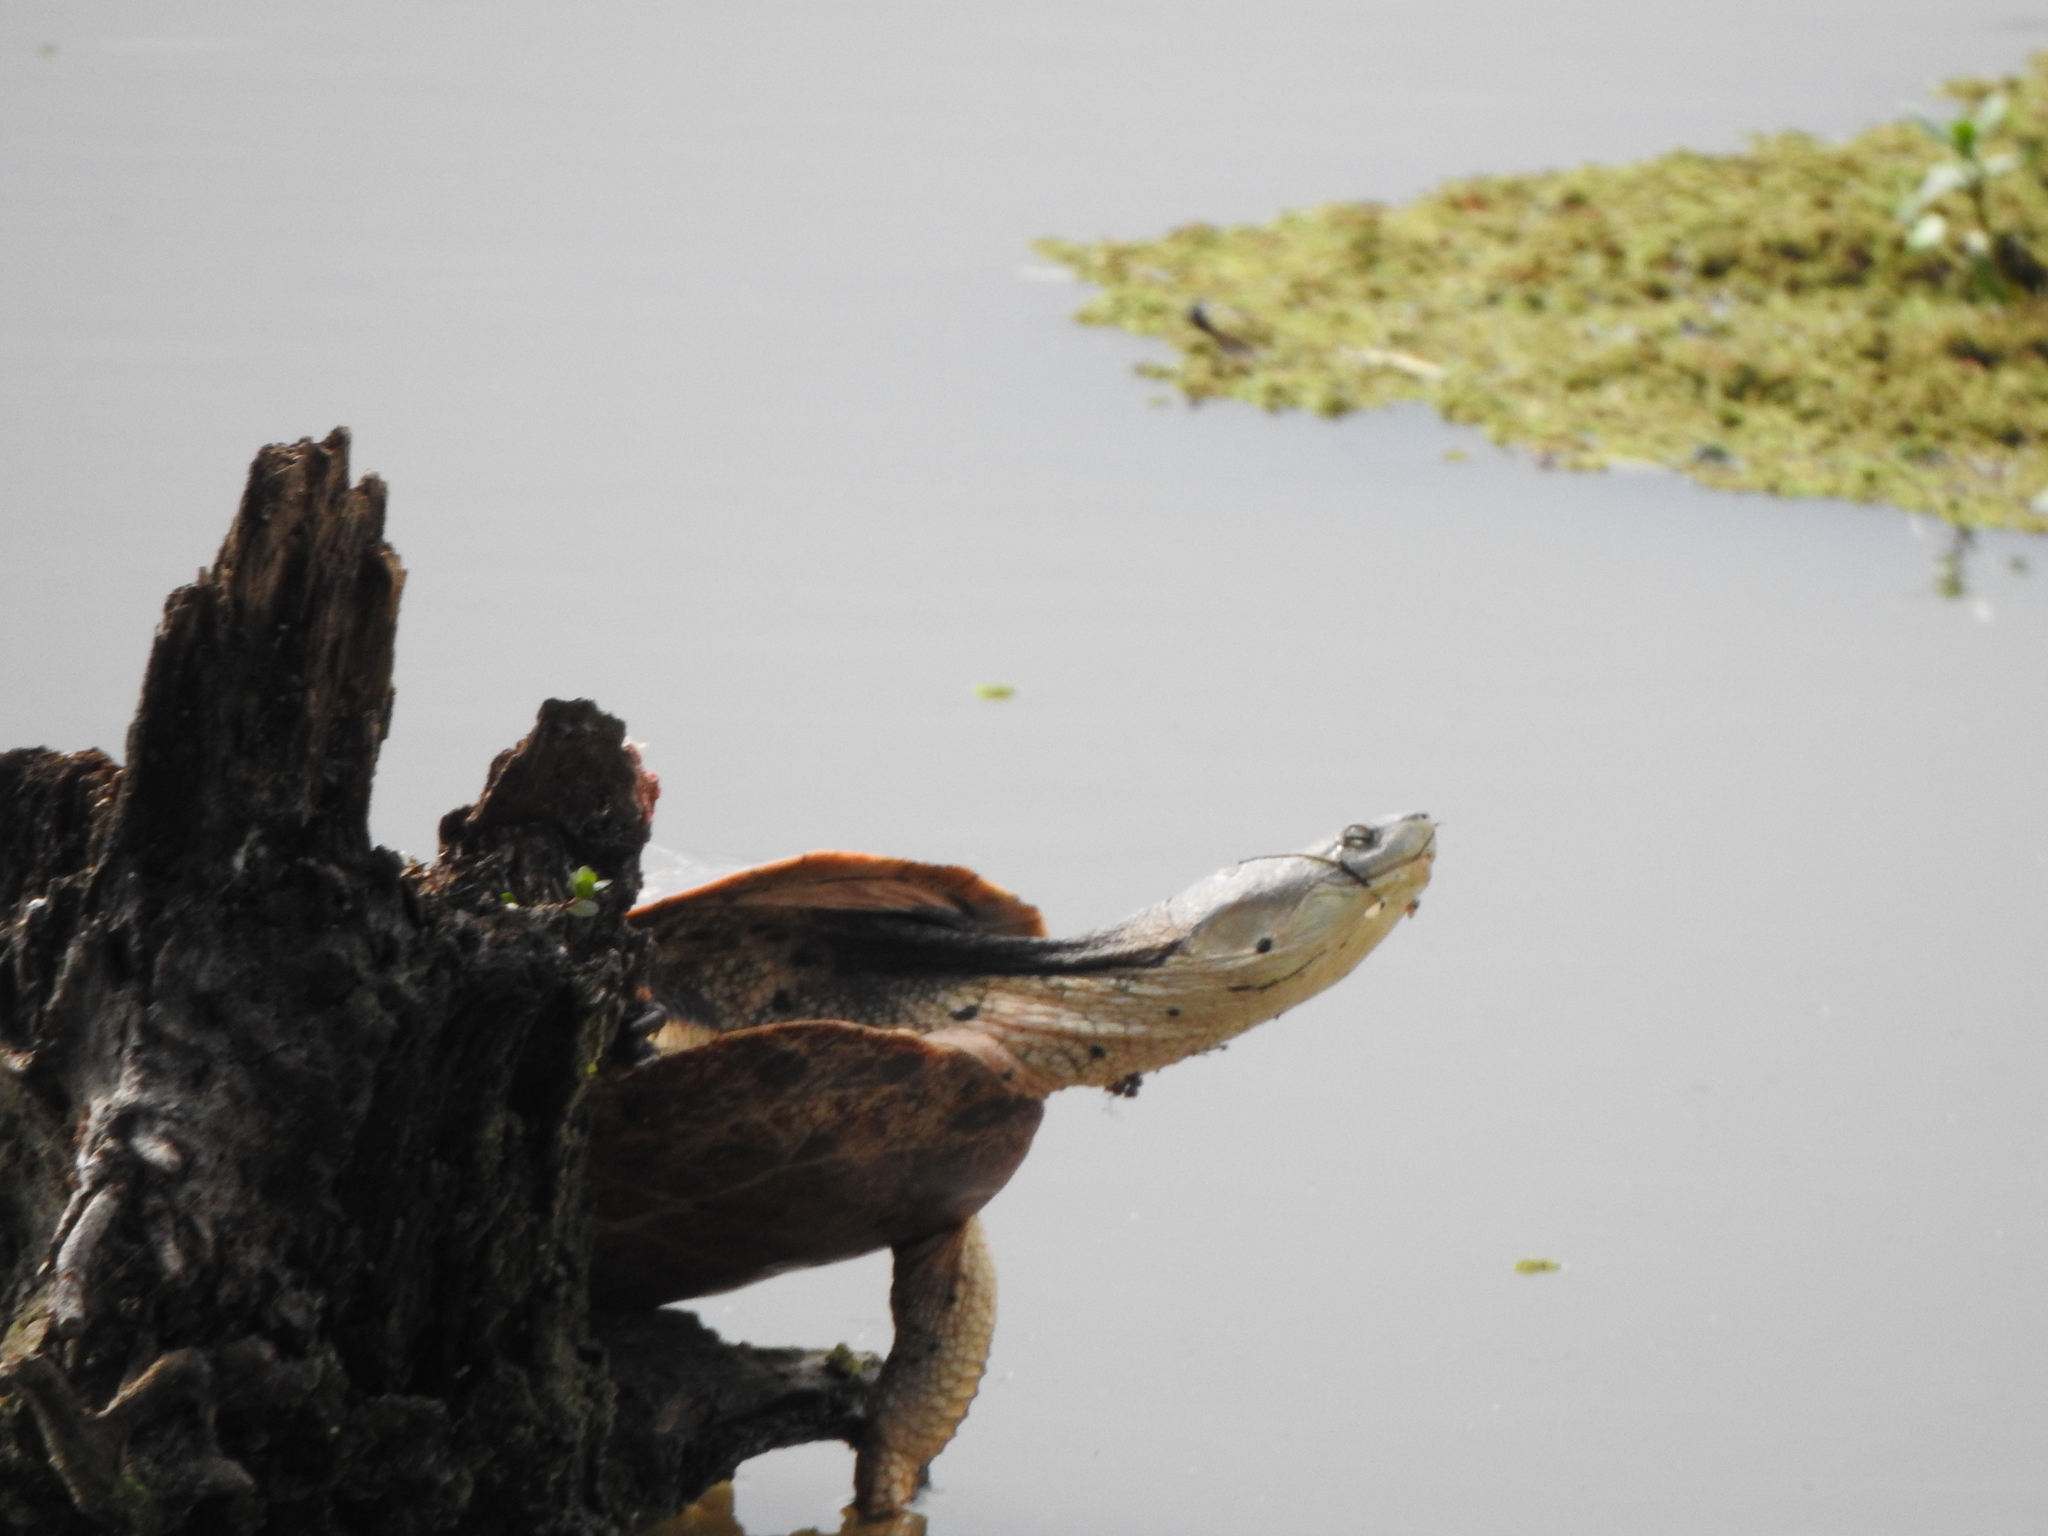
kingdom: Animalia
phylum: Chordata
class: Testudines
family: Chelidae
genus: Phrynops
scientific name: Phrynops hilarii
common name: Side-necked turtle of saint hillaire
